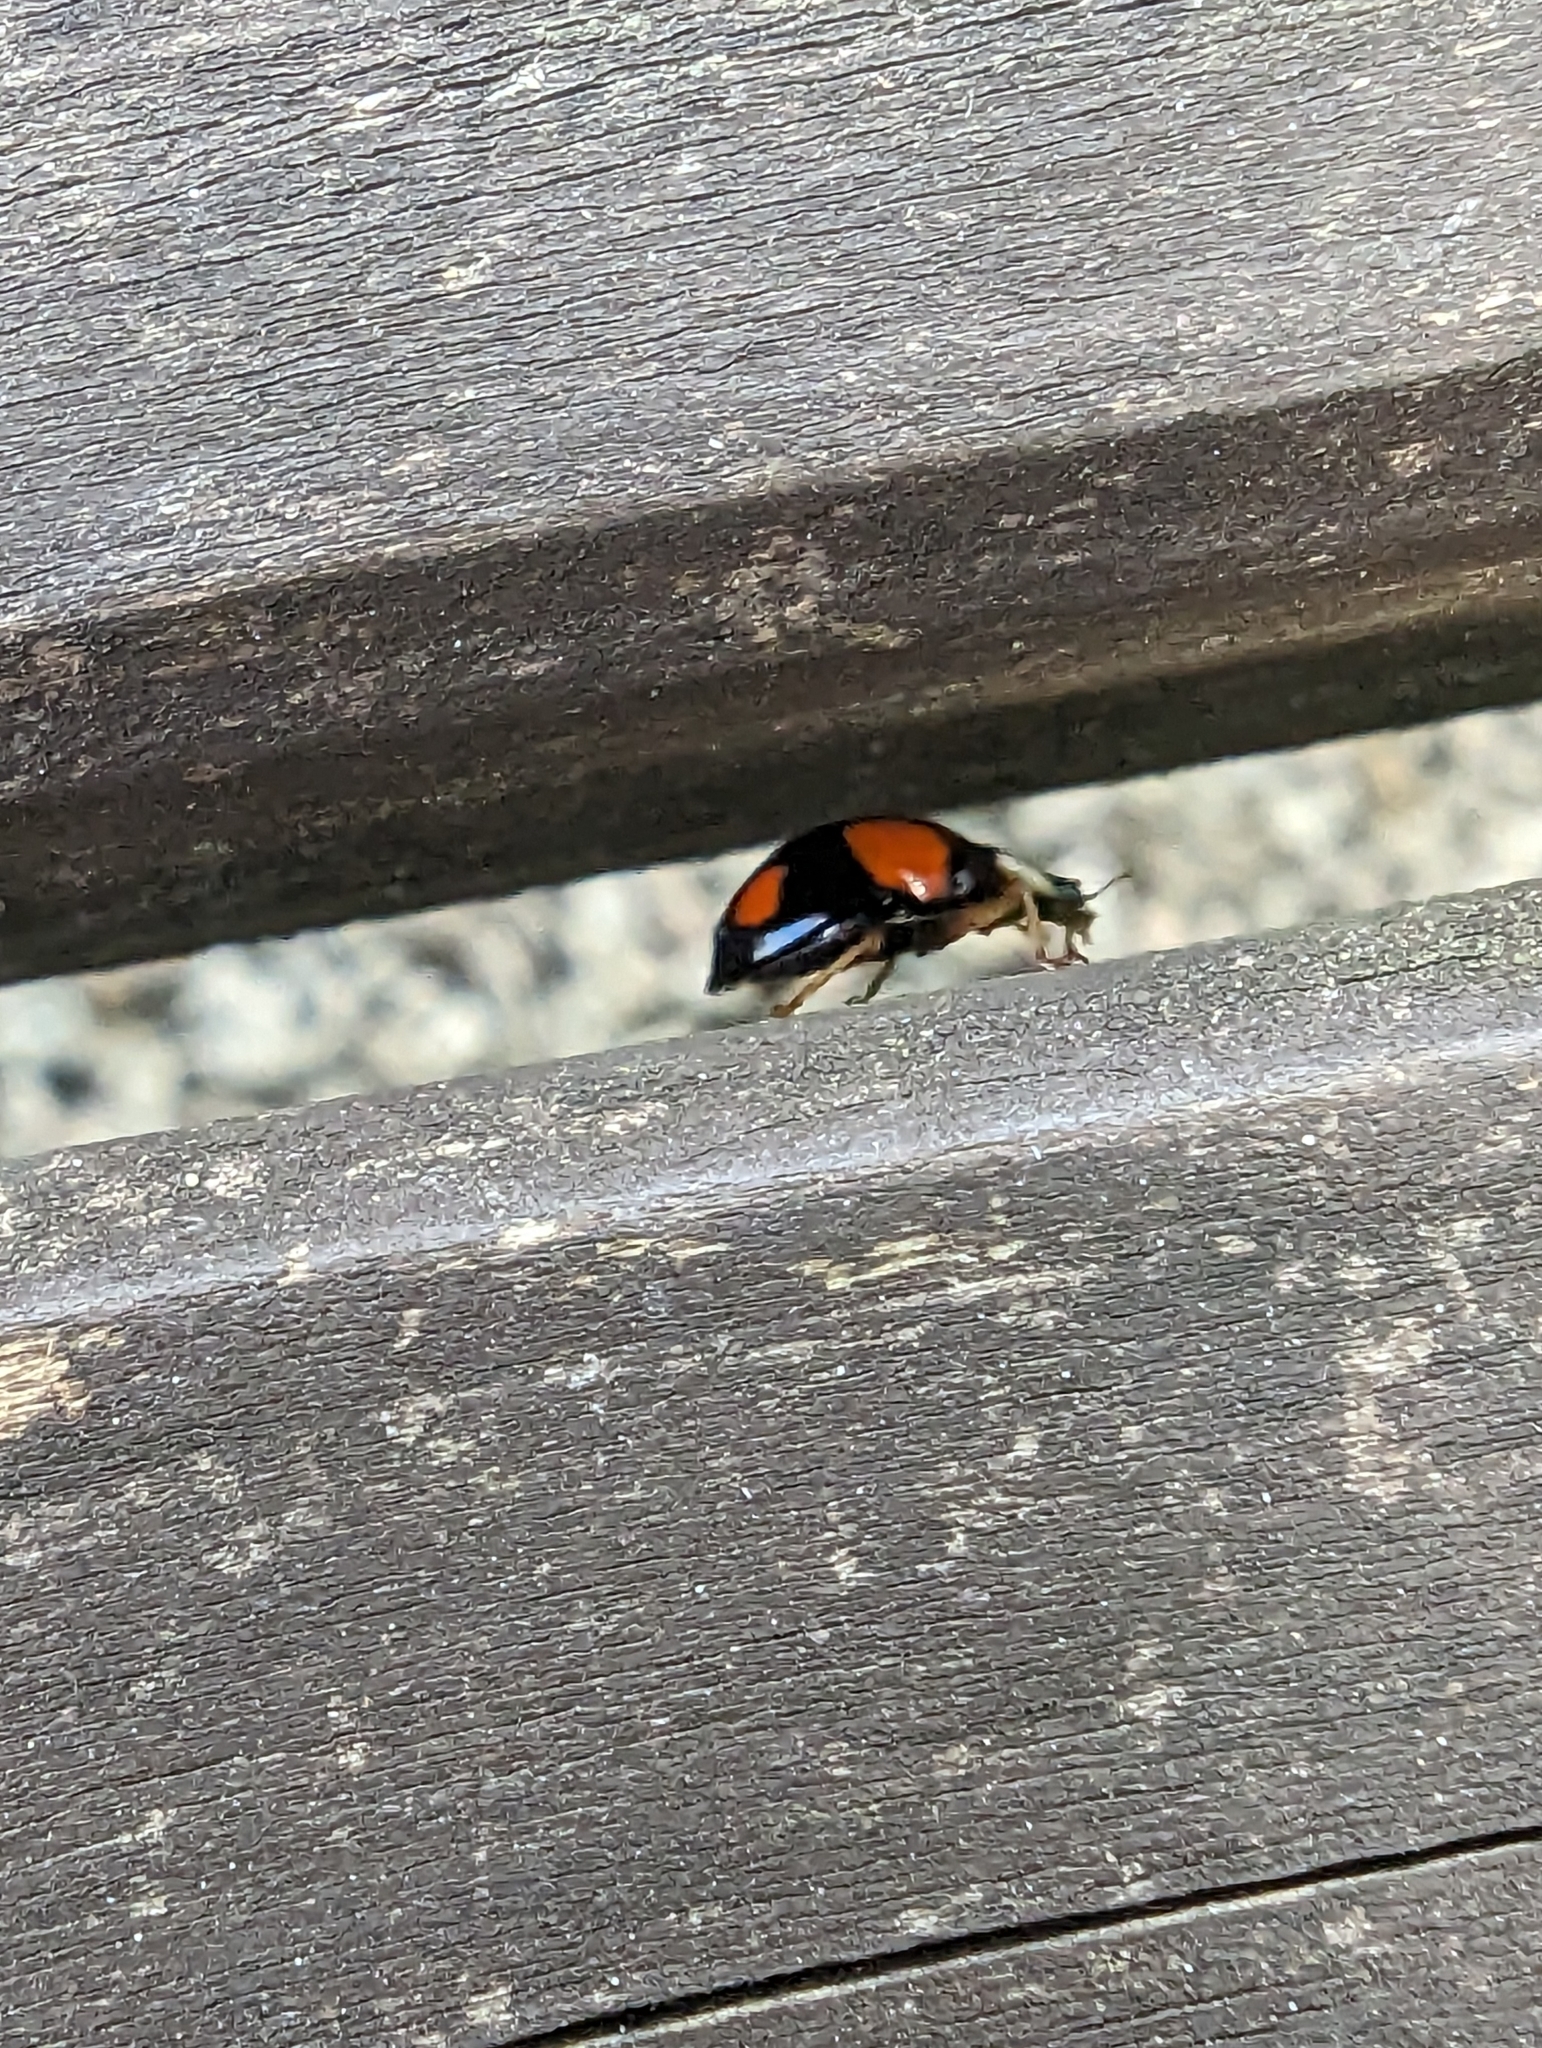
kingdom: Animalia
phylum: Arthropoda
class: Insecta
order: Coleoptera
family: Coccinellidae
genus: Harmonia
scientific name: Harmonia axyridis
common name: Harlequin ladybird
